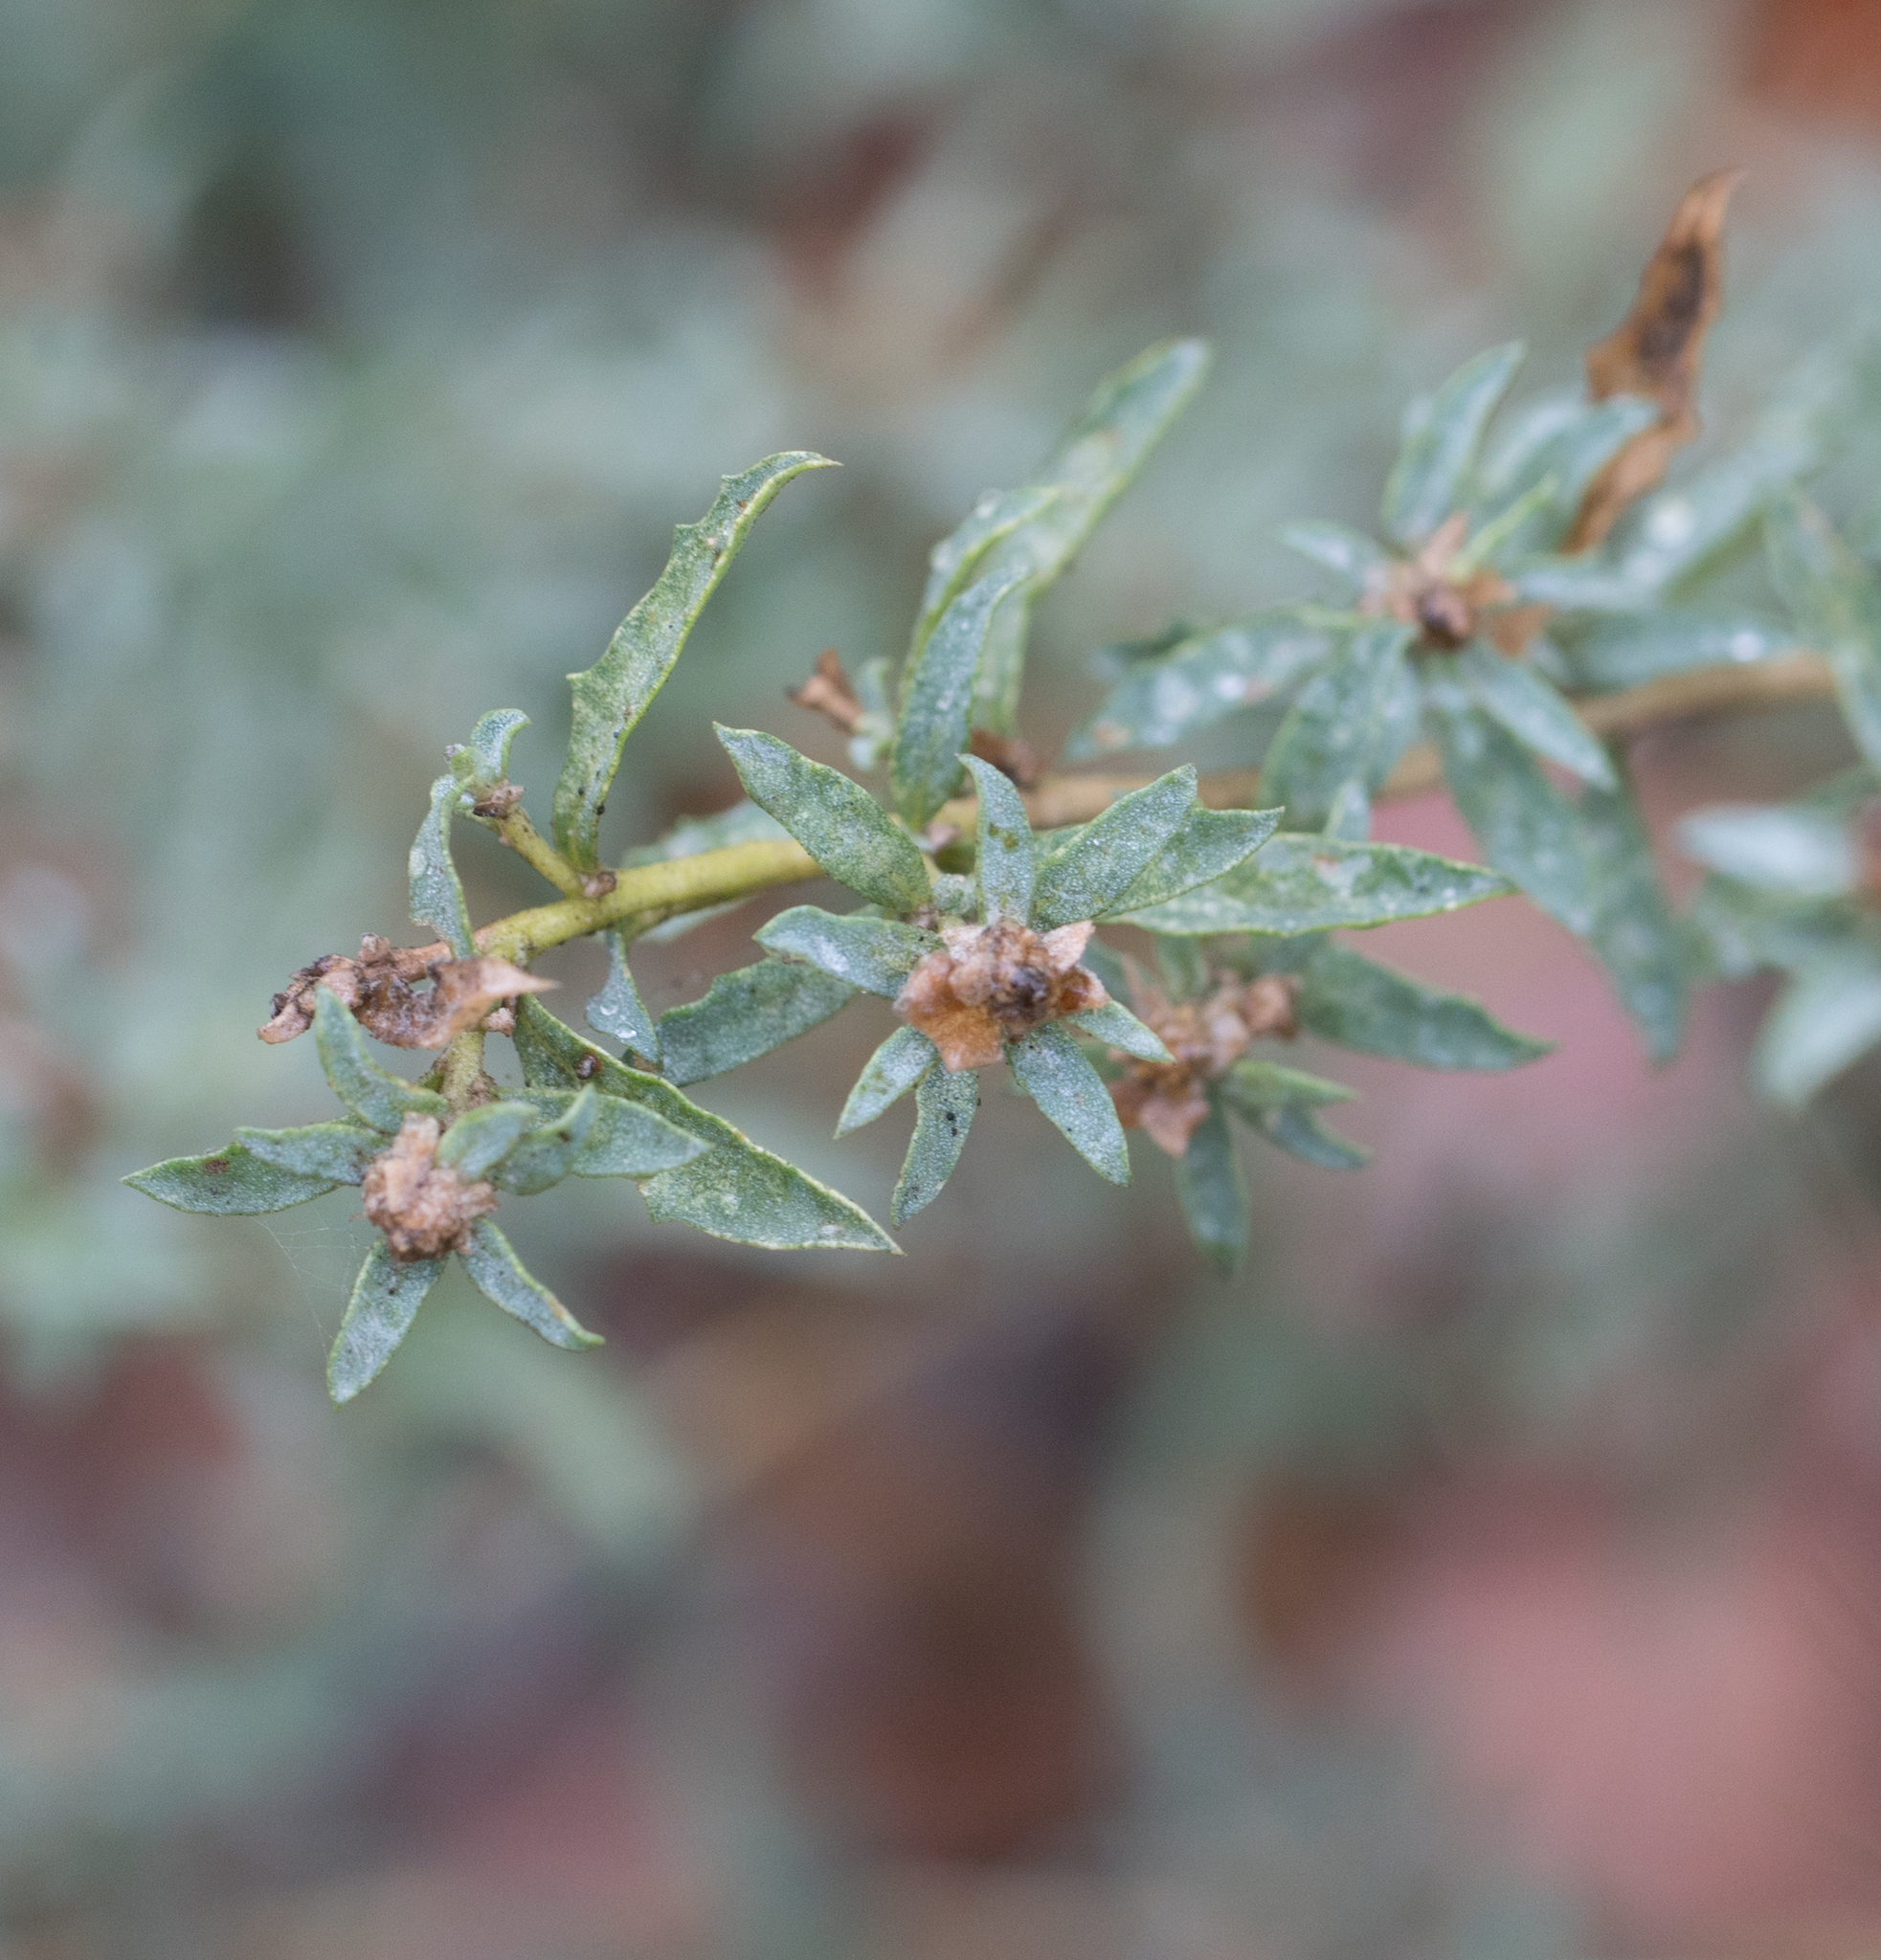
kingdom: Plantae
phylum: Tracheophyta
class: Magnoliopsida
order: Caryophyllales
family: Amaranthaceae
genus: Atriplex
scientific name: Atriplex semibaccata
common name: Australian saltbush
